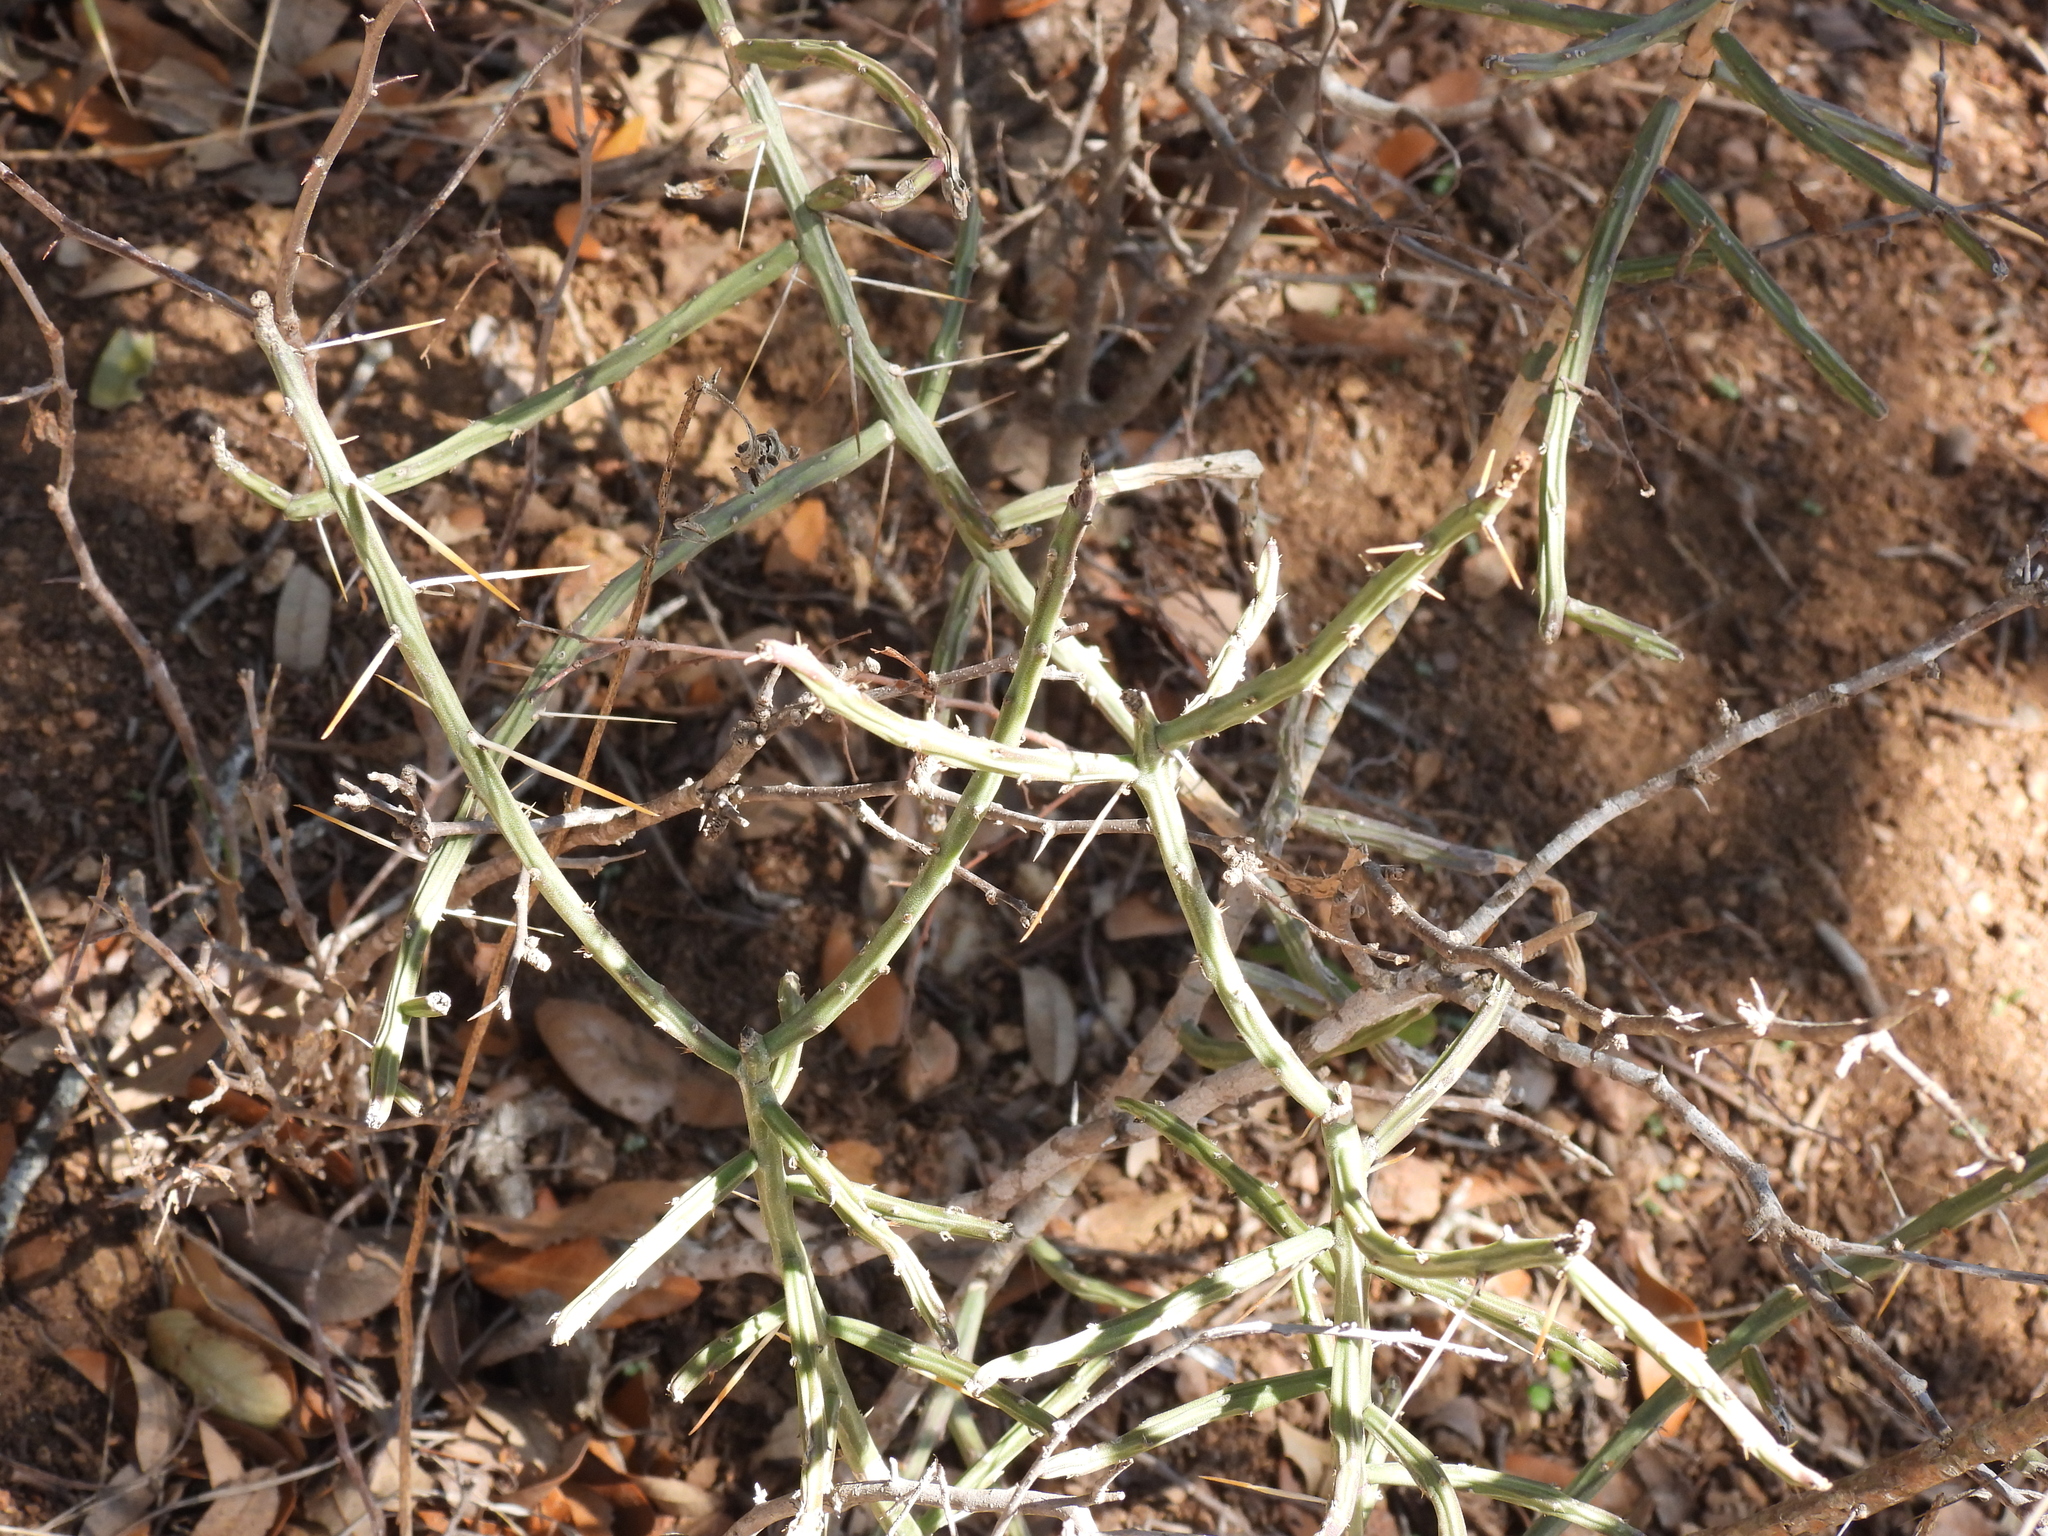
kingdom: Plantae
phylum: Tracheophyta
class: Magnoliopsida
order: Caryophyllales
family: Cactaceae
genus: Cylindropuntia
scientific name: Cylindropuntia leptocaulis
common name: Christmas cactus
